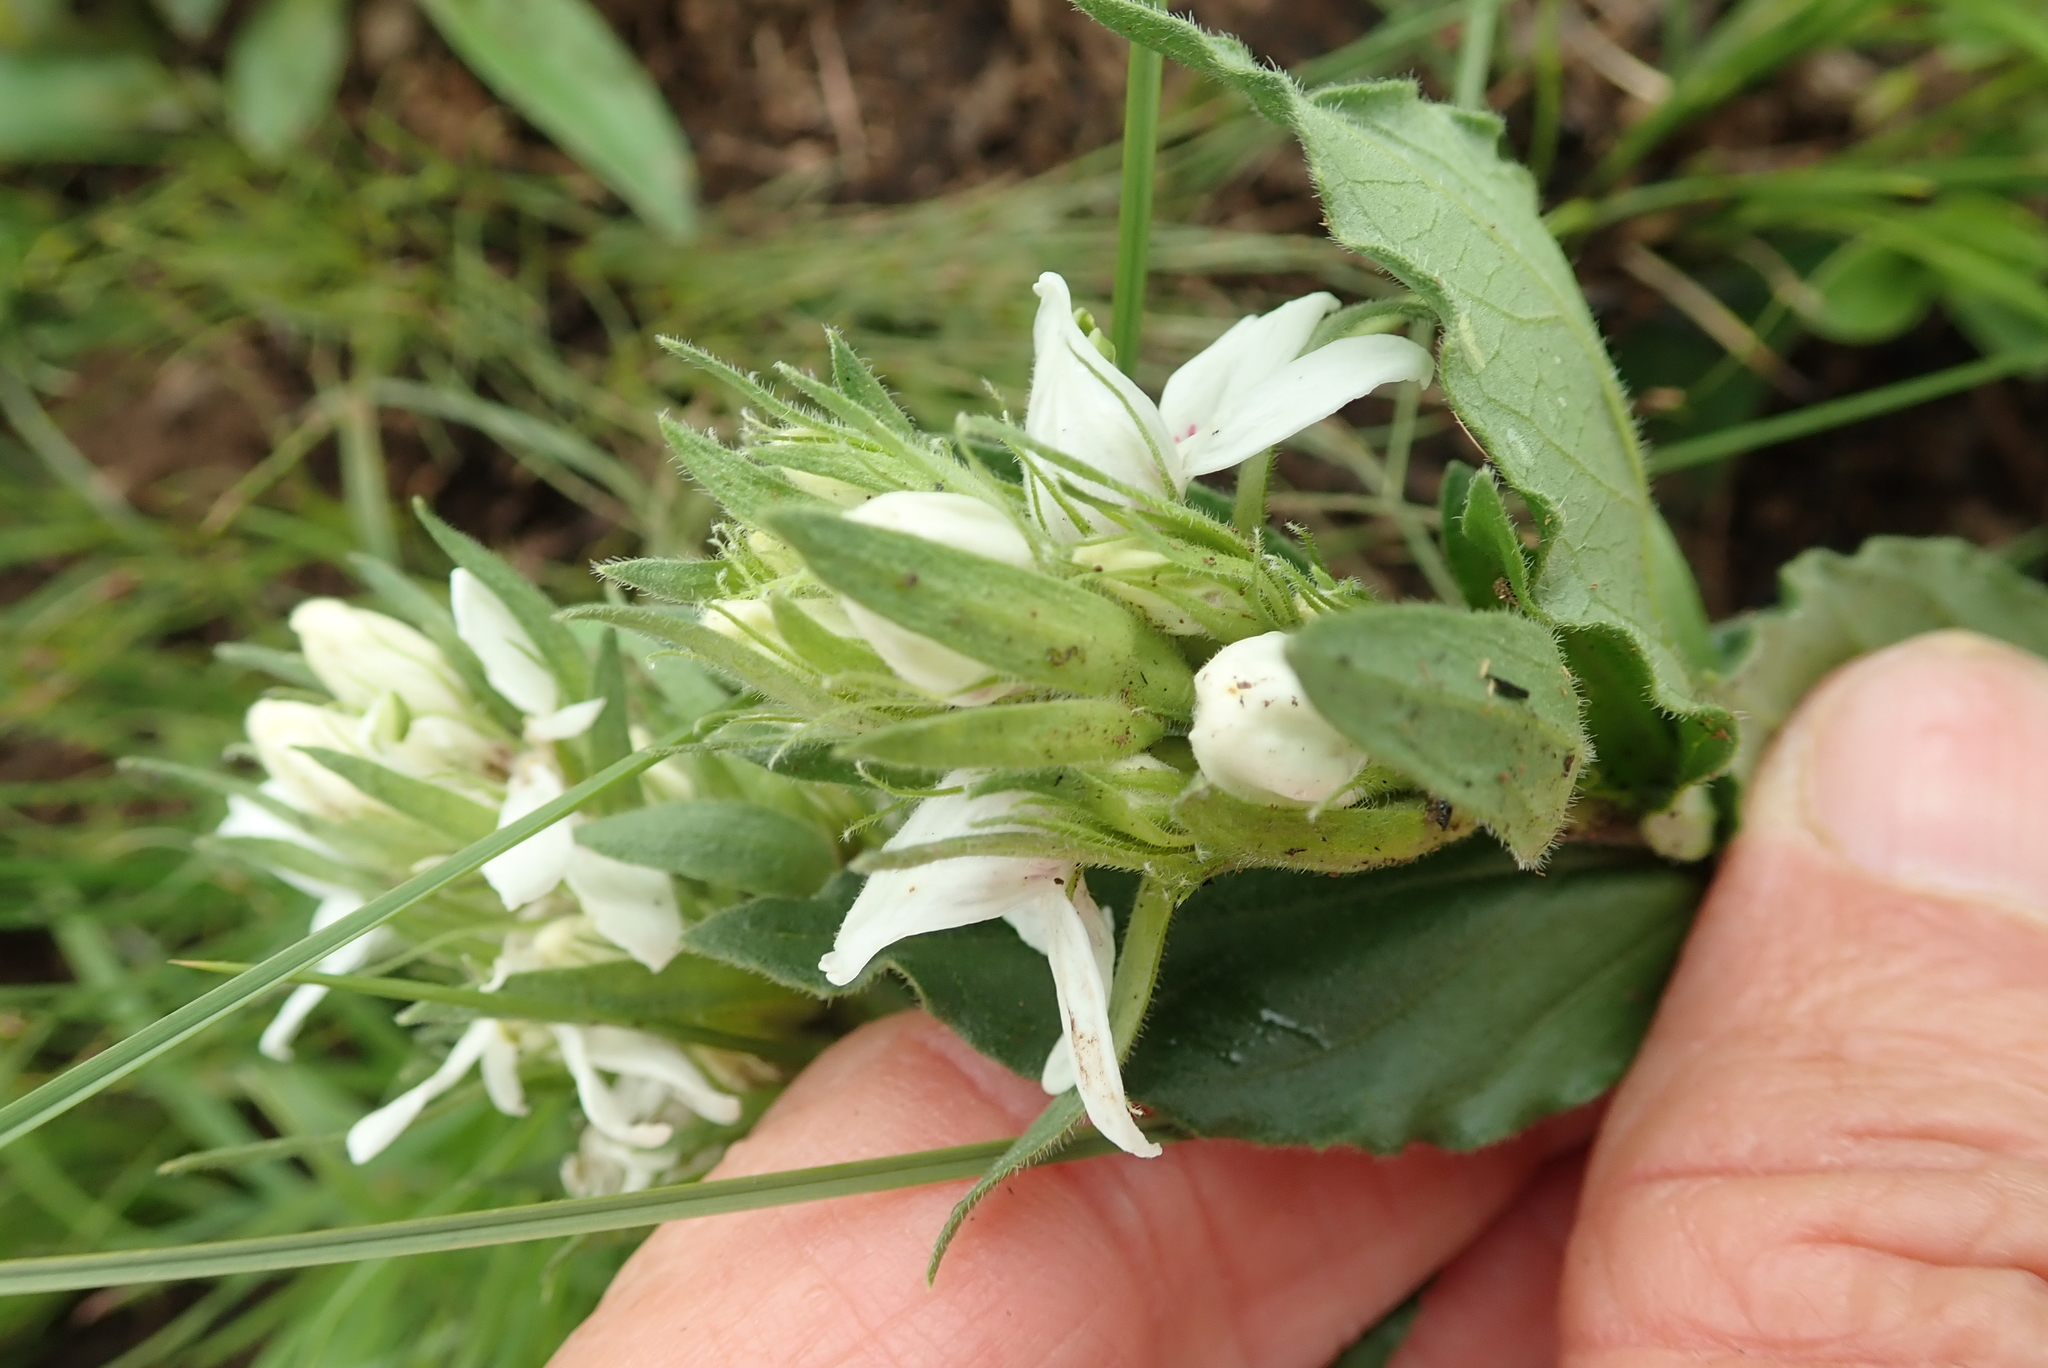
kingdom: Plantae
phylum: Tracheophyta
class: Magnoliopsida
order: Lamiales
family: Acanthaceae
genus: Justicia
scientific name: Justicia andromeda
